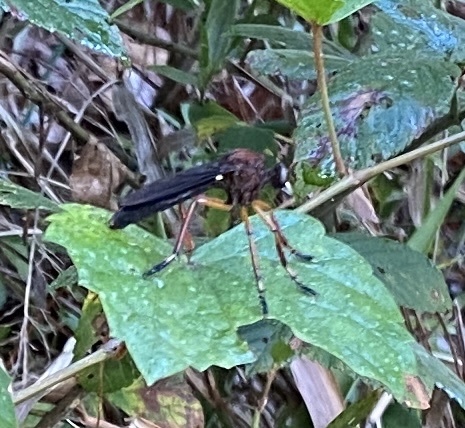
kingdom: Animalia
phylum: Arthropoda
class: Insecta
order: Diptera
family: Asilidae
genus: Diogmites
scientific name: Diogmites platypterus
